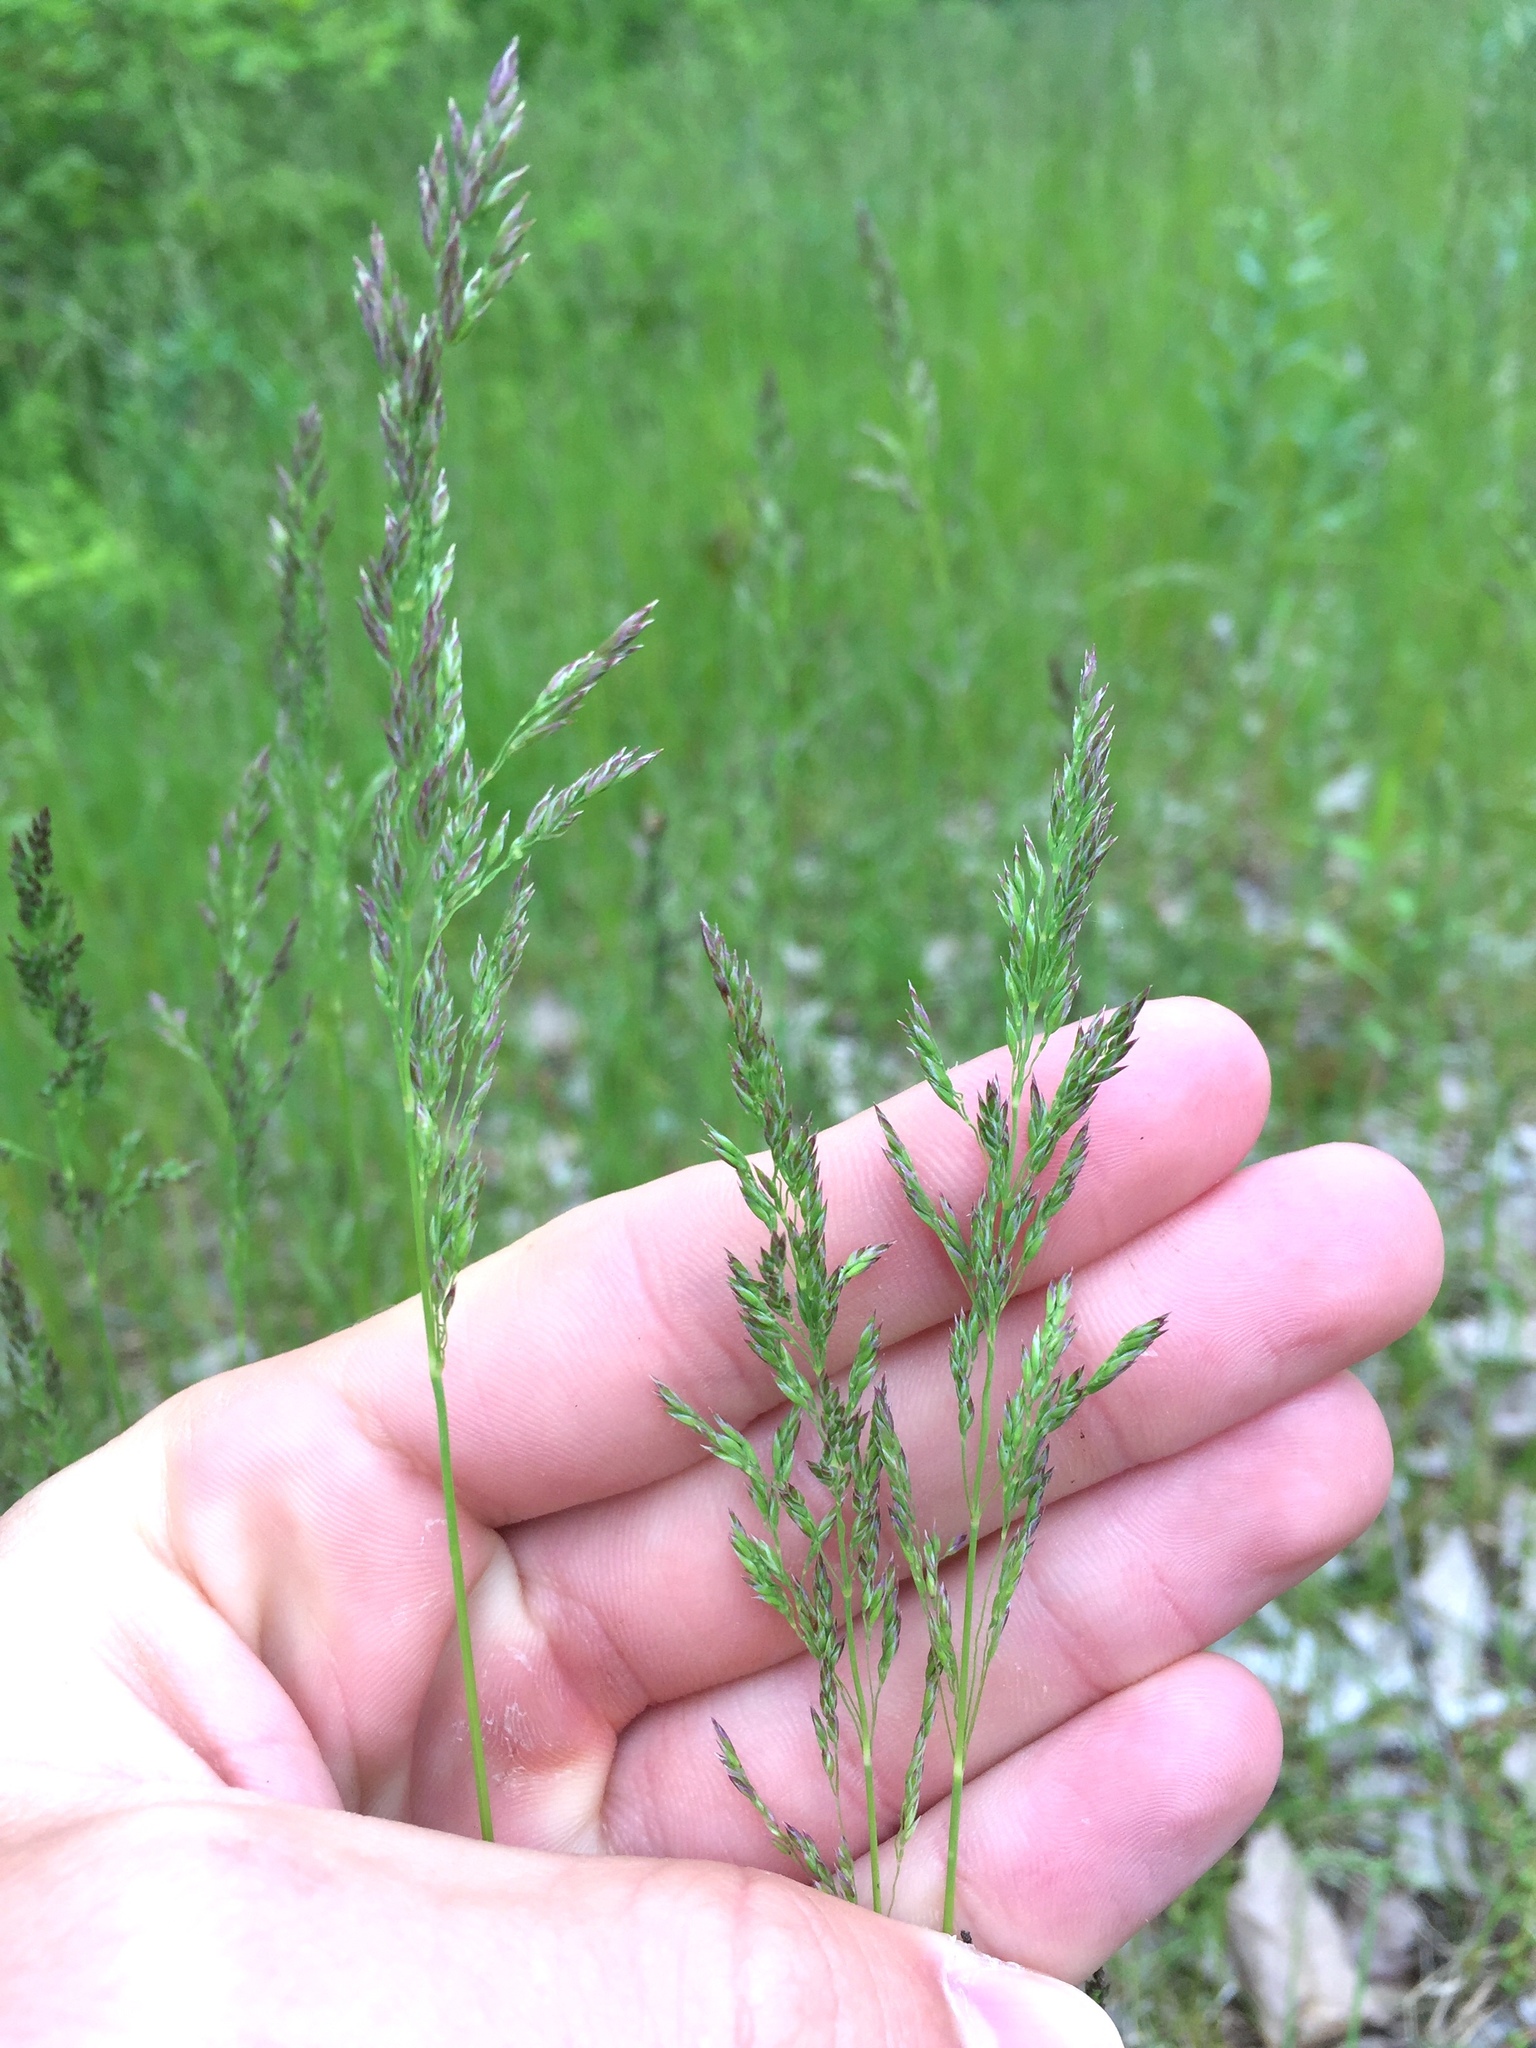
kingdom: Plantae
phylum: Tracheophyta
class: Liliopsida
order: Poales
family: Poaceae
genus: Poa
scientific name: Poa pratensis
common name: Kentucky bluegrass
